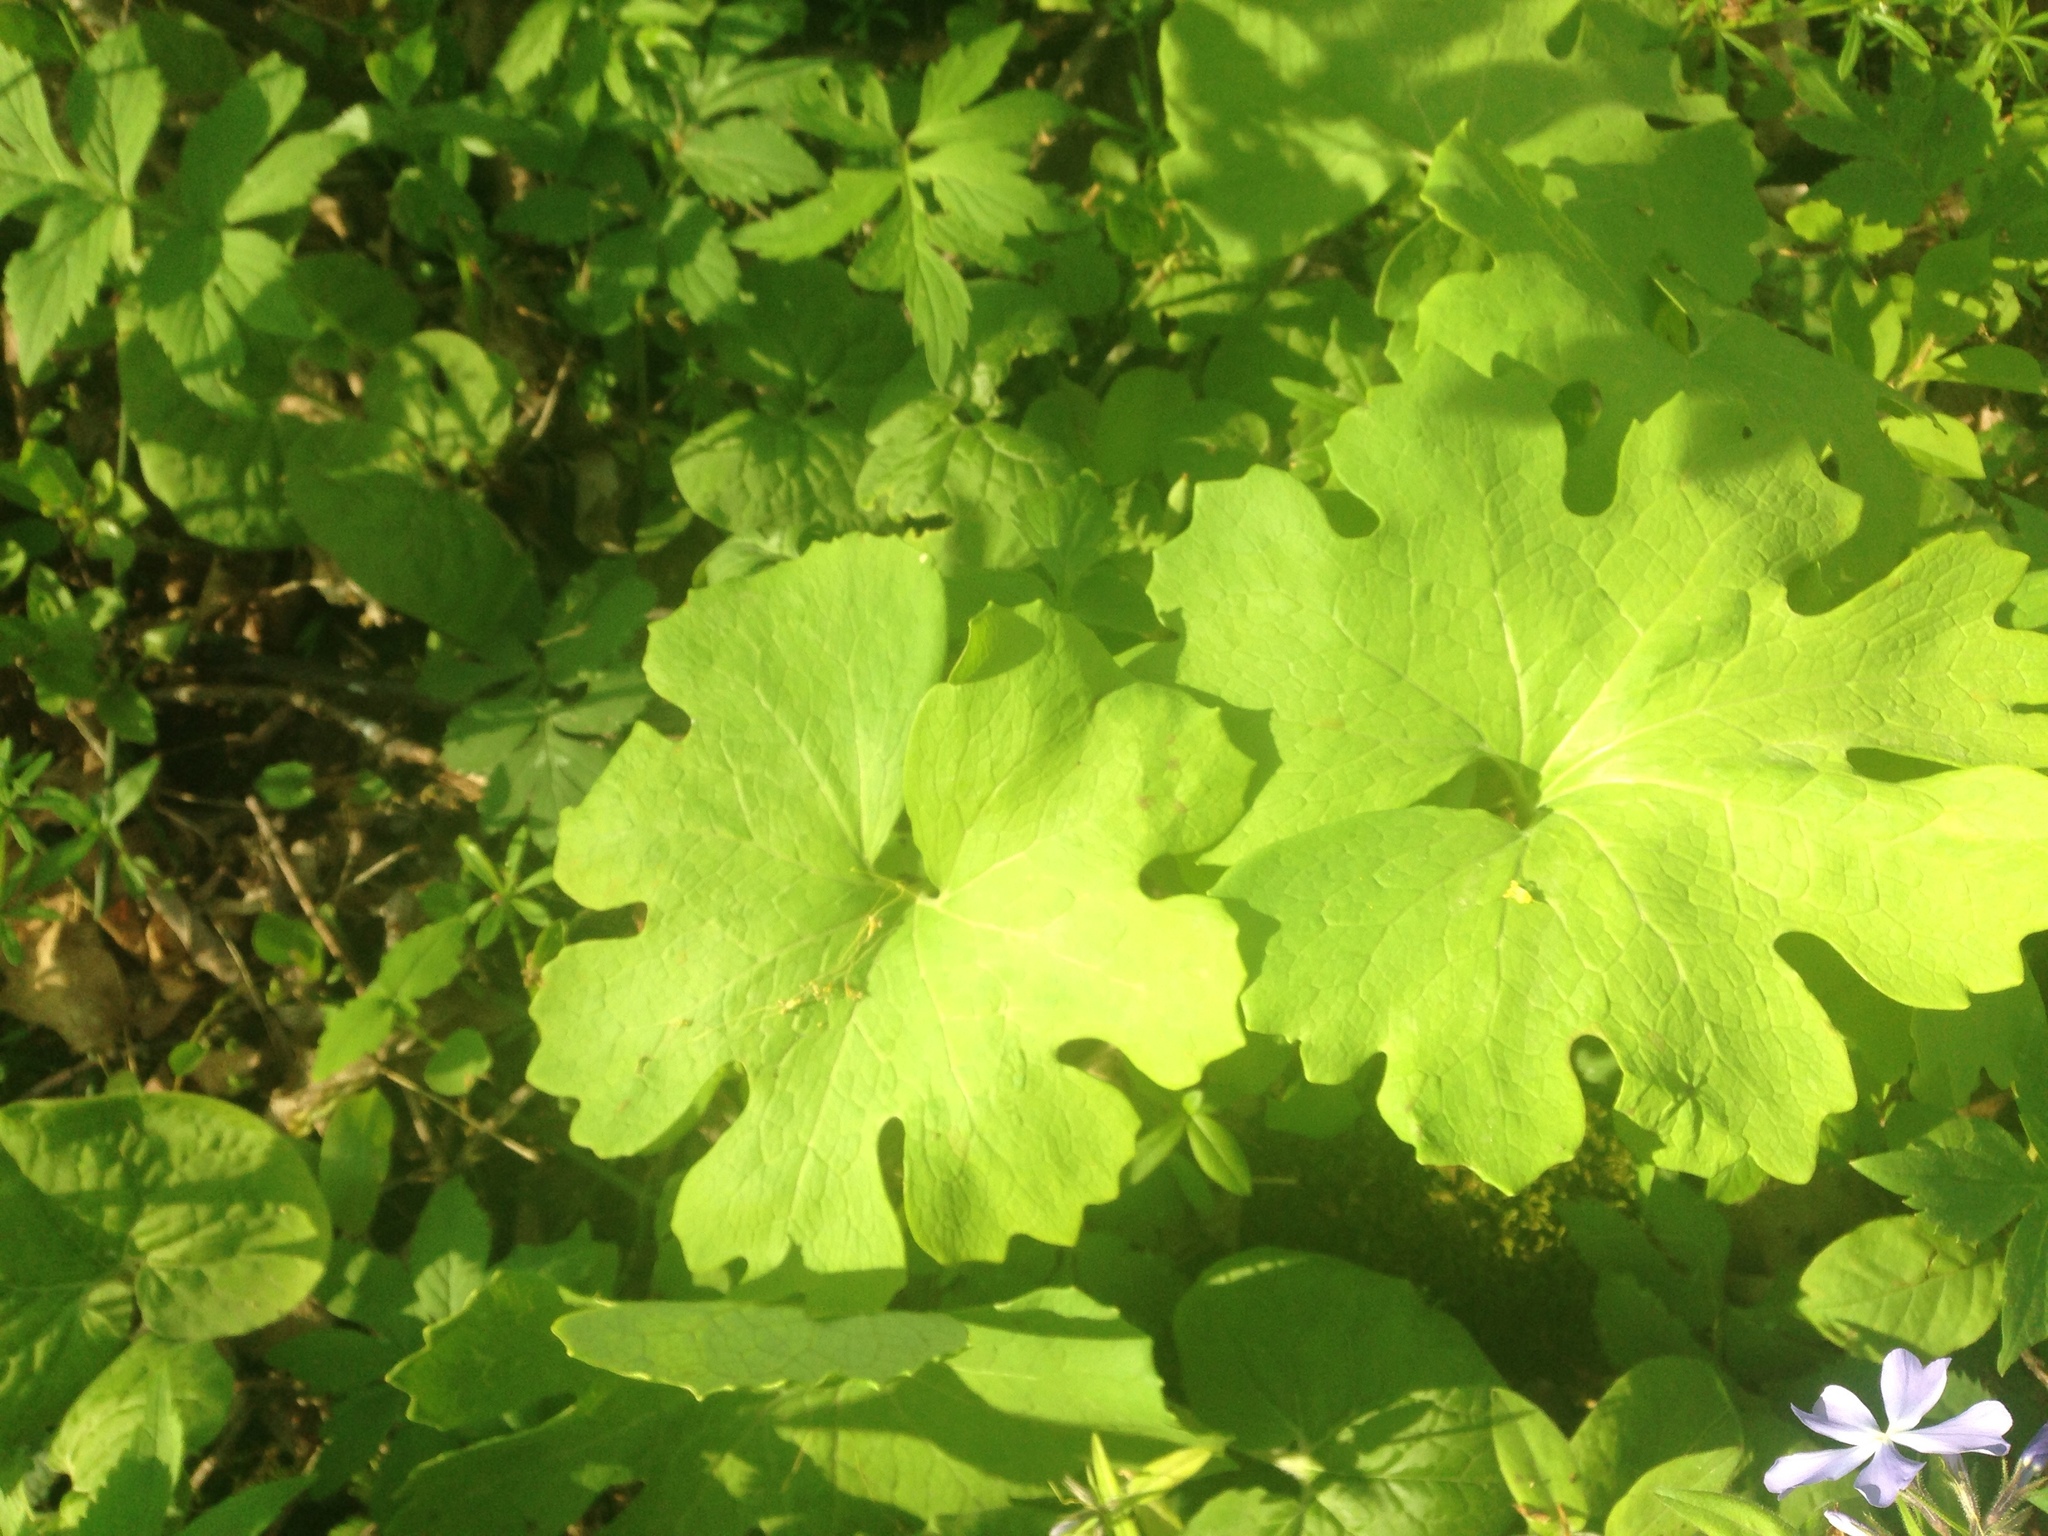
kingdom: Plantae
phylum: Tracheophyta
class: Magnoliopsida
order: Ranunculales
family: Papaveraceae
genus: Sanguinaria
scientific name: Sanguinaria canadensis
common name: Bloodroot
